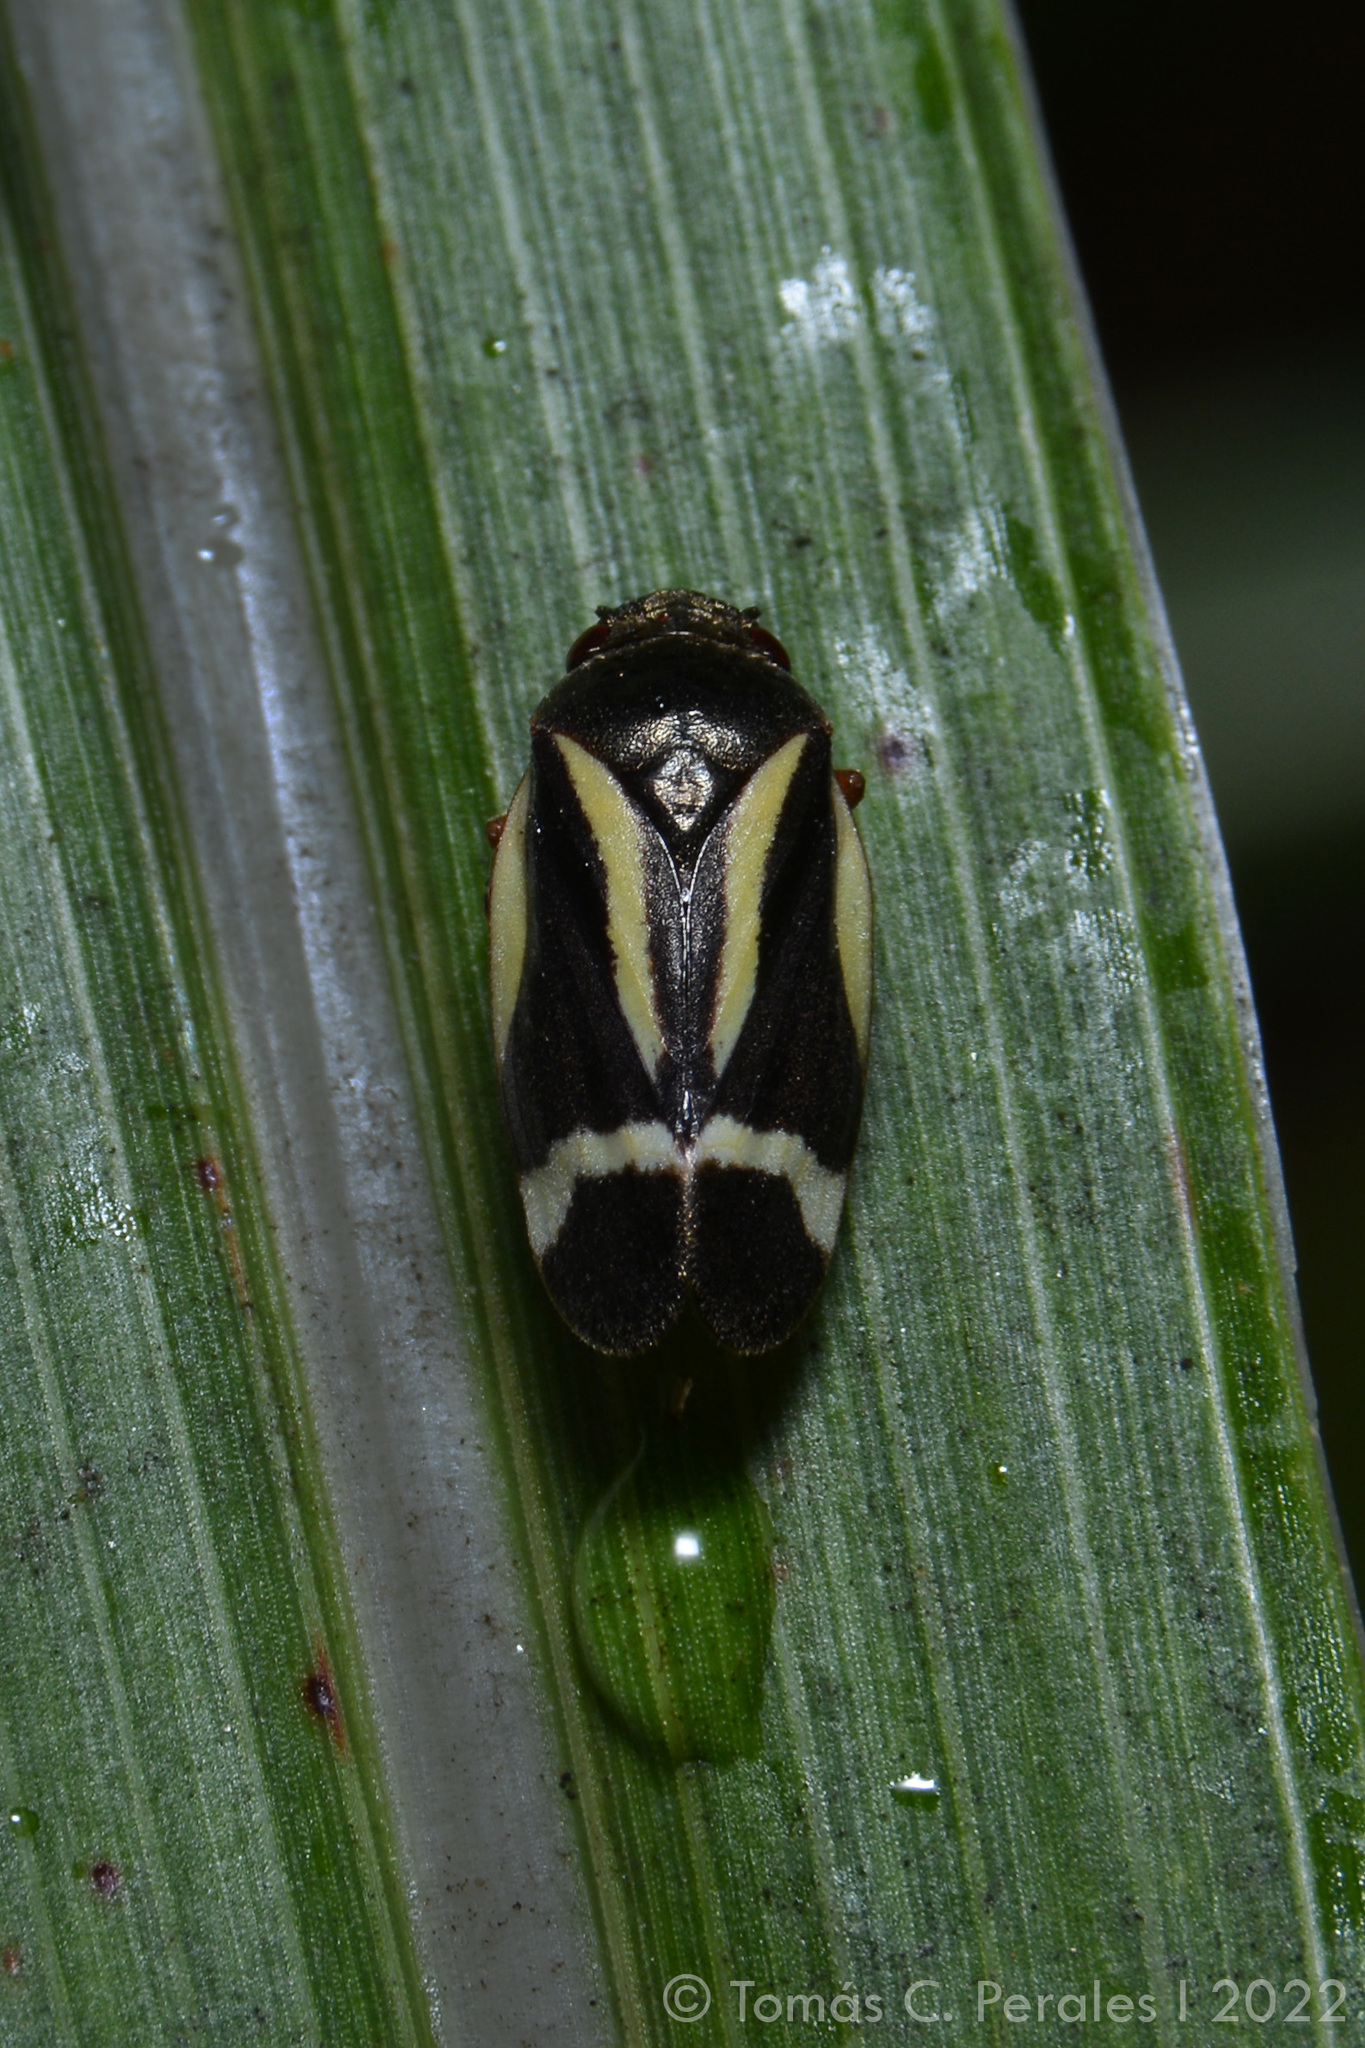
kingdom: Animalia
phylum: Arthropoda
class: Insecta
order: Hemiptera
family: Cercopidae
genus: Notozulia
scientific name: Notozulia entreriana
